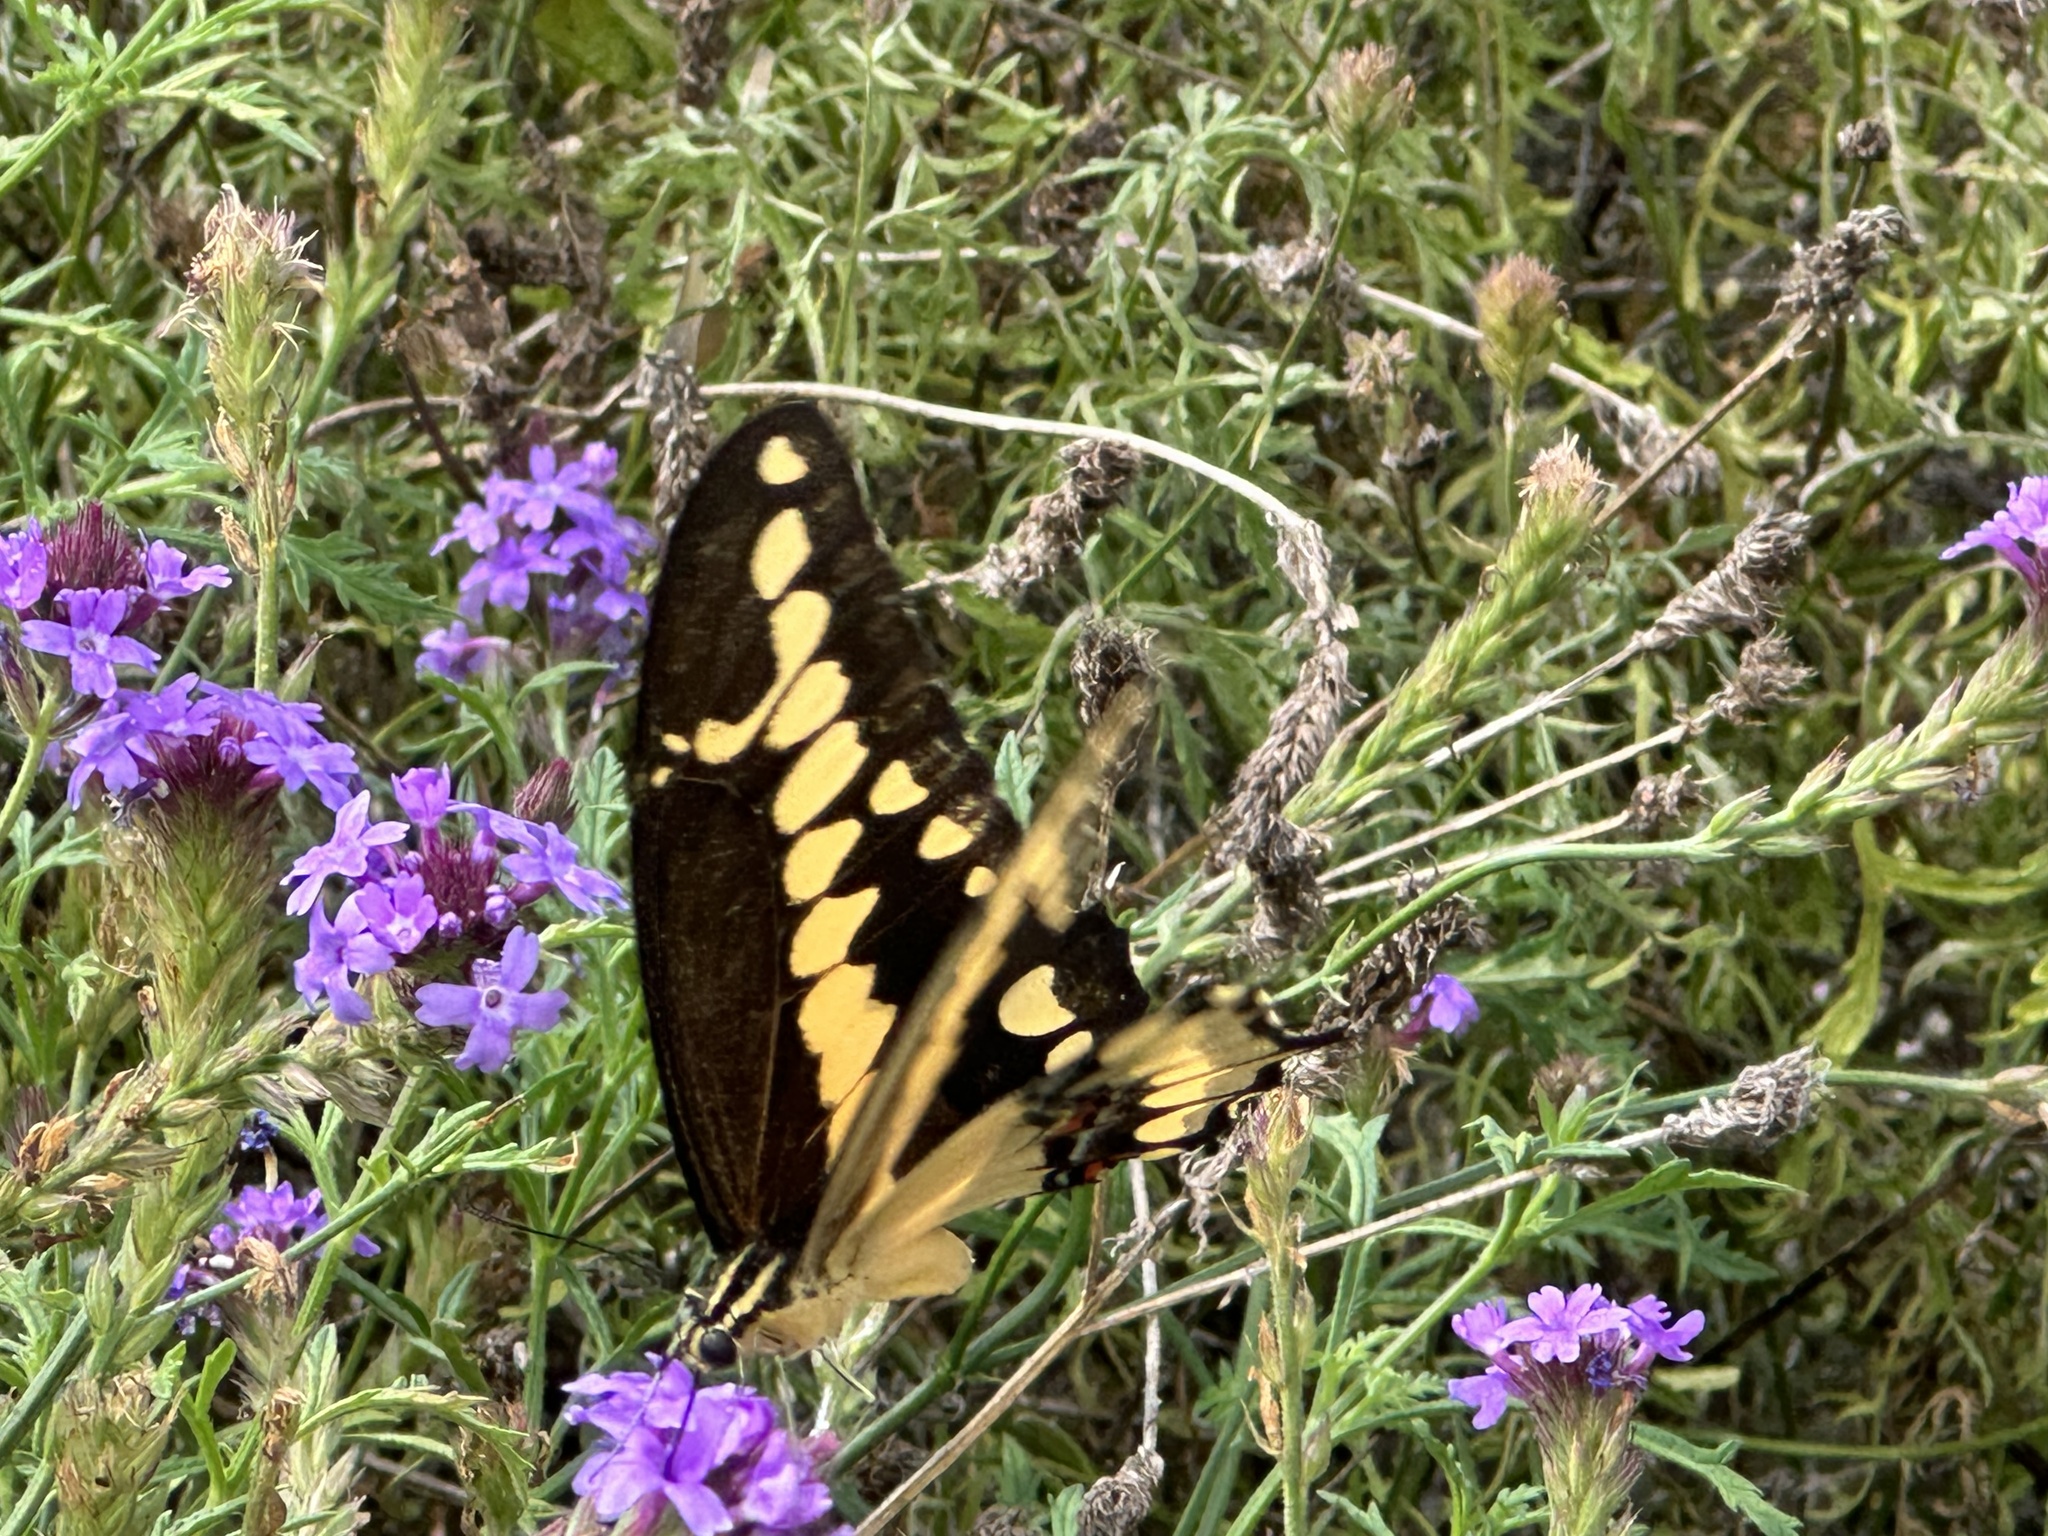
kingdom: Animalia
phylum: Arthropoda
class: Insecta
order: Lepidoptera
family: Papilionidae
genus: Papilio
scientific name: Papilio rumiko
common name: Western giant swallowtail
